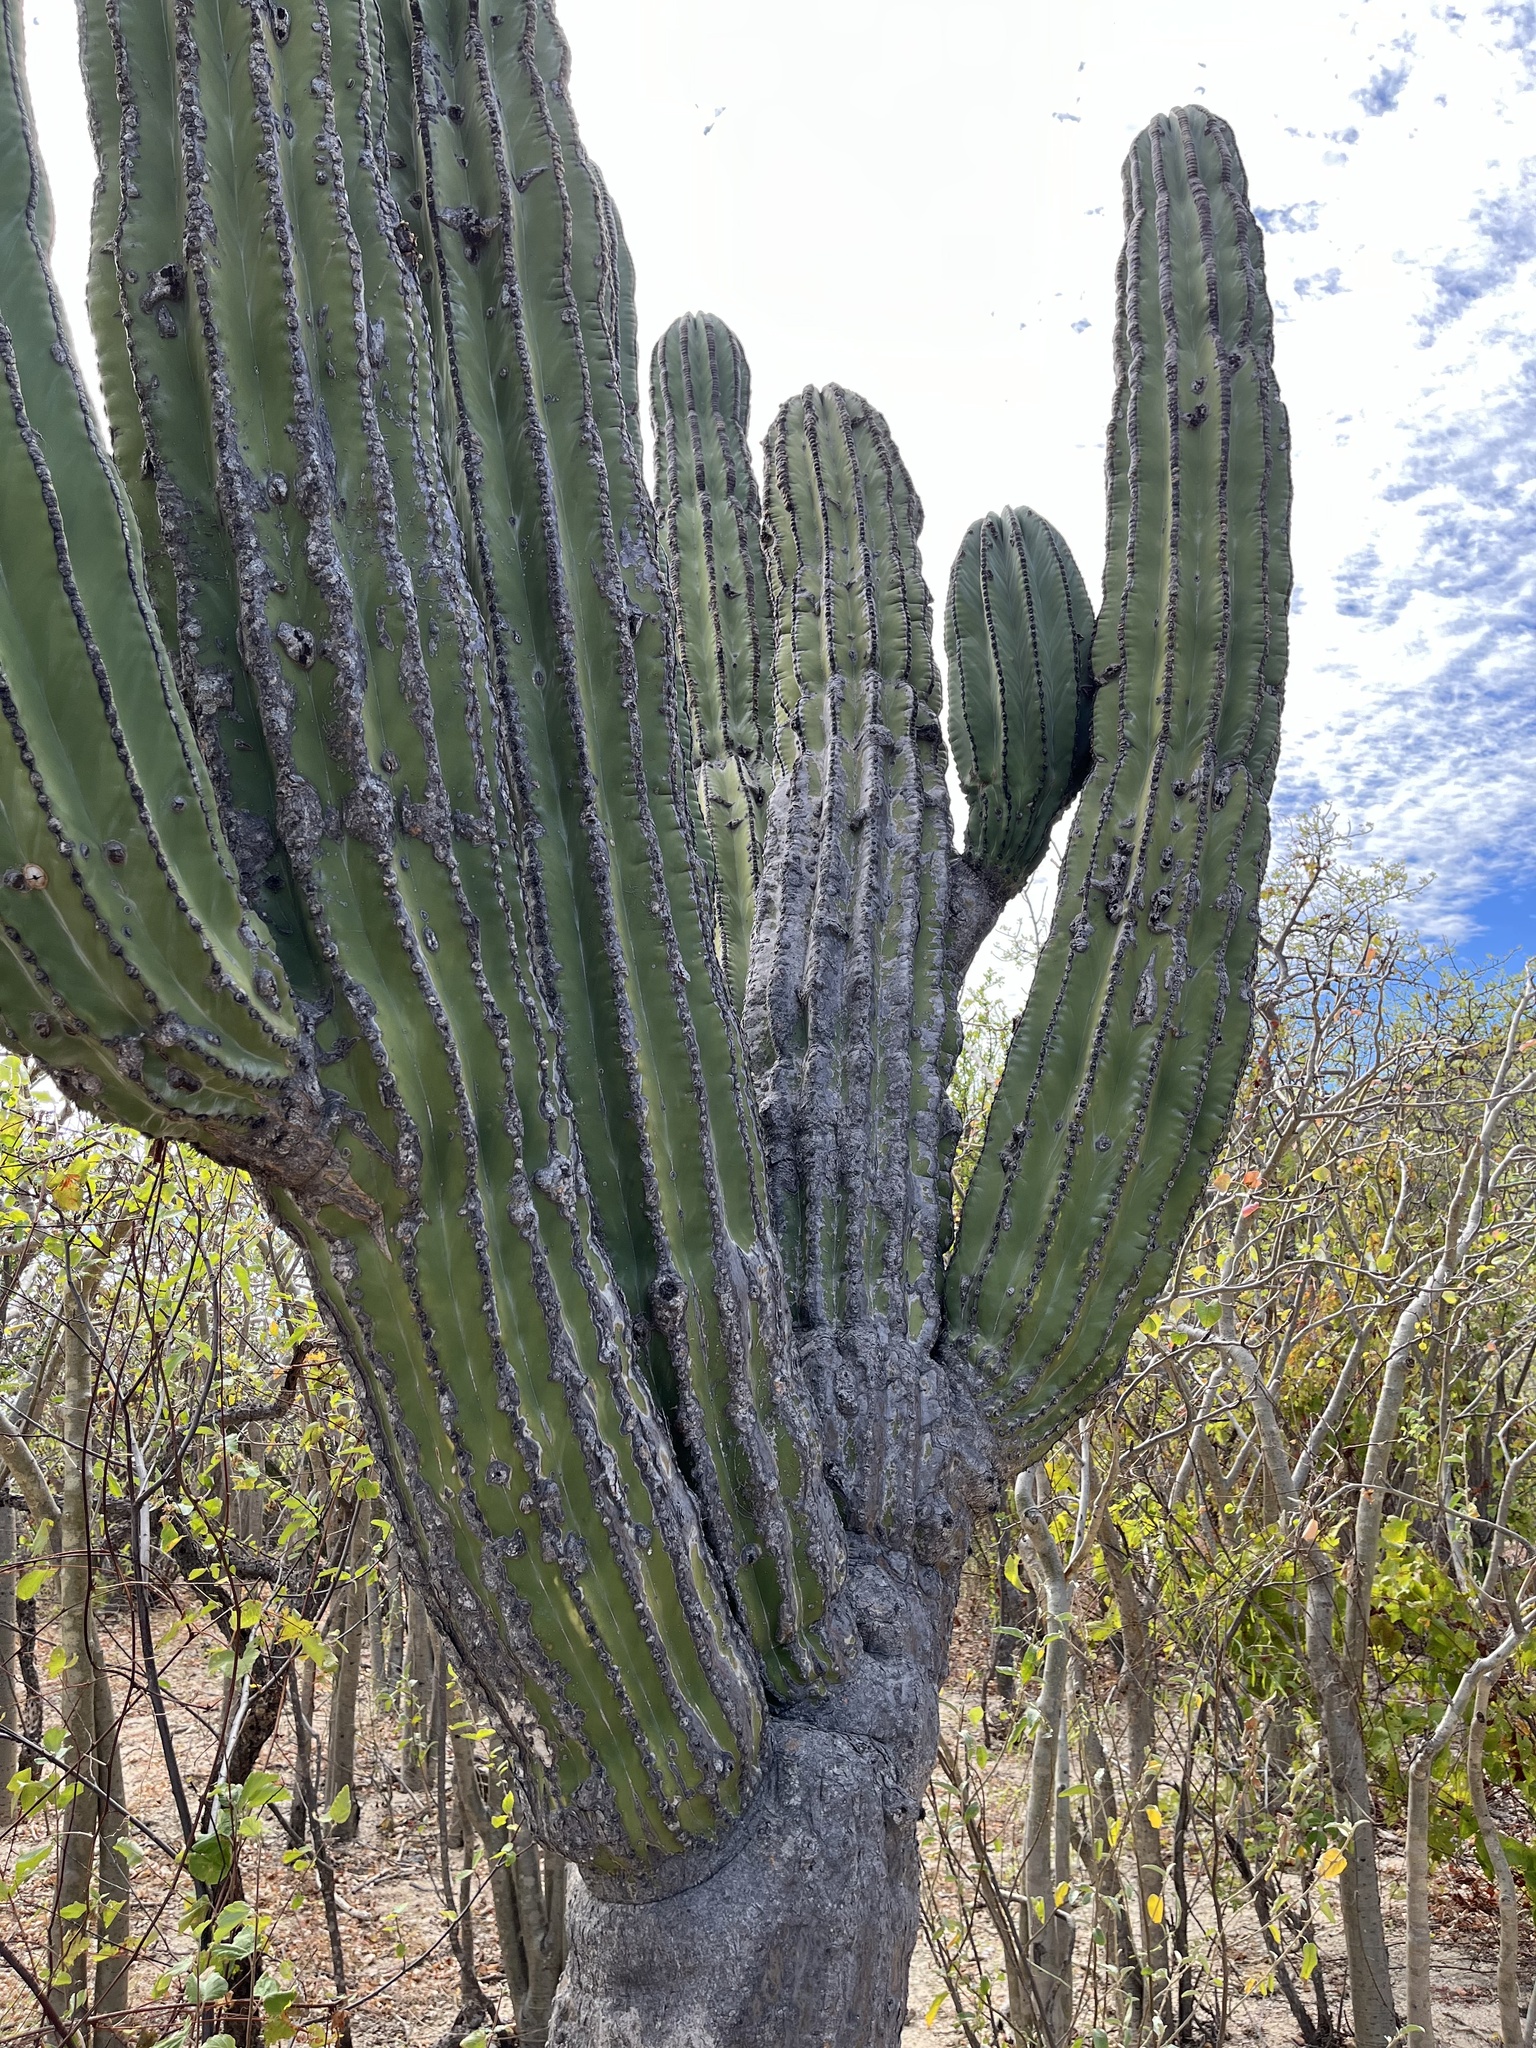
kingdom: Plantae
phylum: Tracheophyta
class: Magnoliopsida
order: Caryophyllales
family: Cactaceae
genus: Pachycereus
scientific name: Pachycereus pringlei
